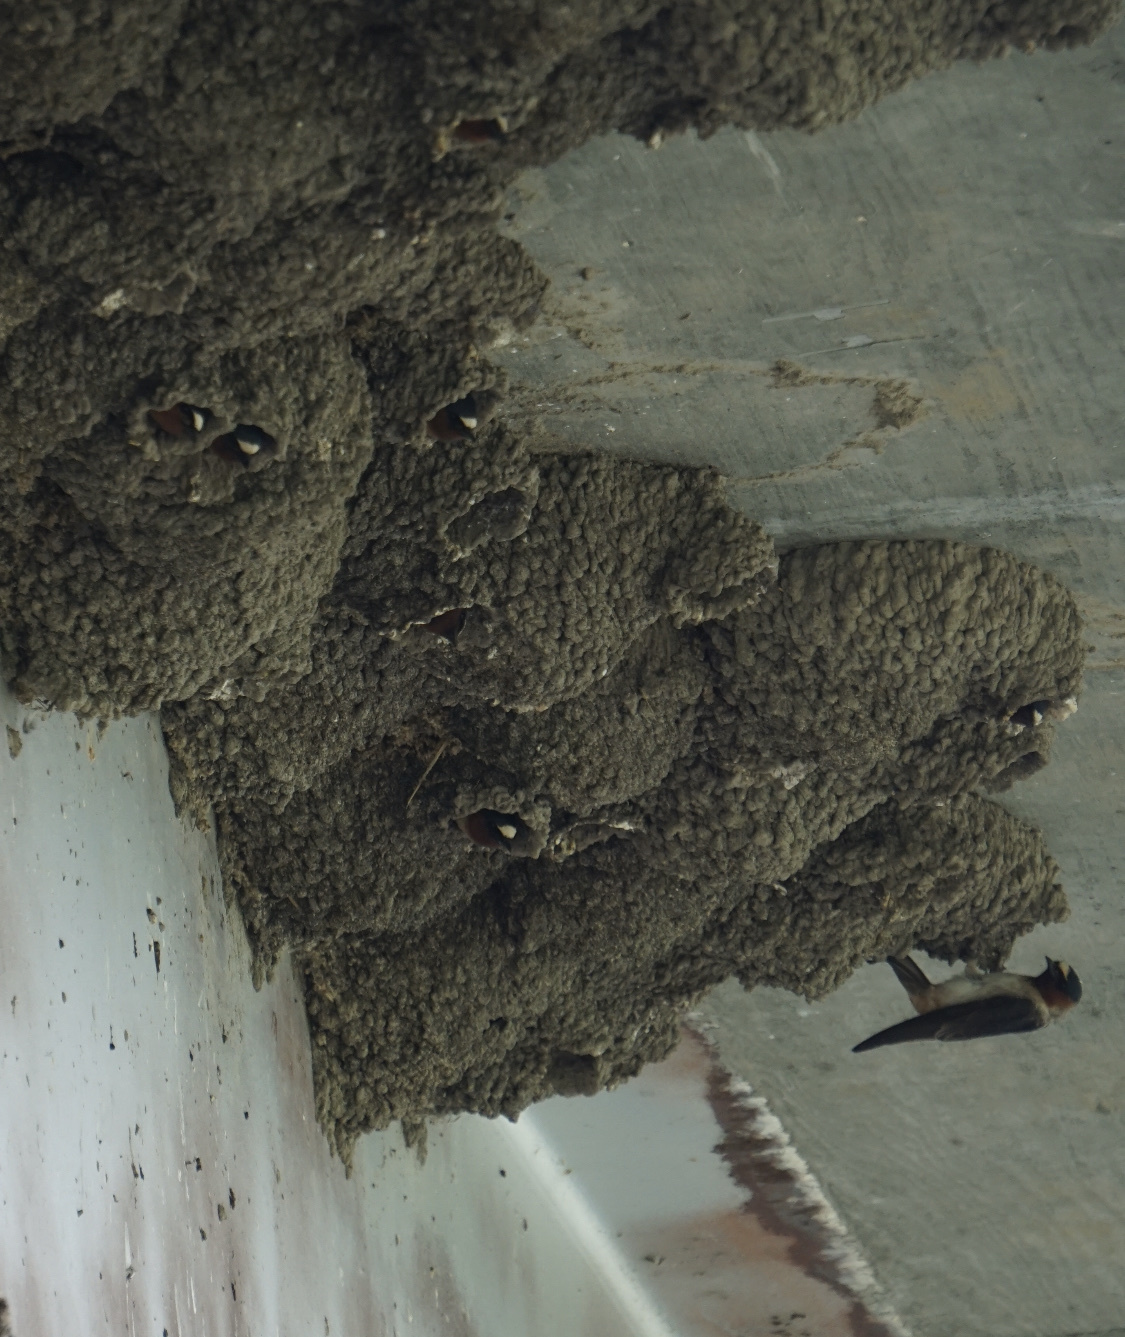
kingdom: Animalia
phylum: Chordata
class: Aves
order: Passeriformes
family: Hirundinidae
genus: Petrochelidon
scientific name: Petrochelidon pyrrhonota
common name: American cliff swallow
